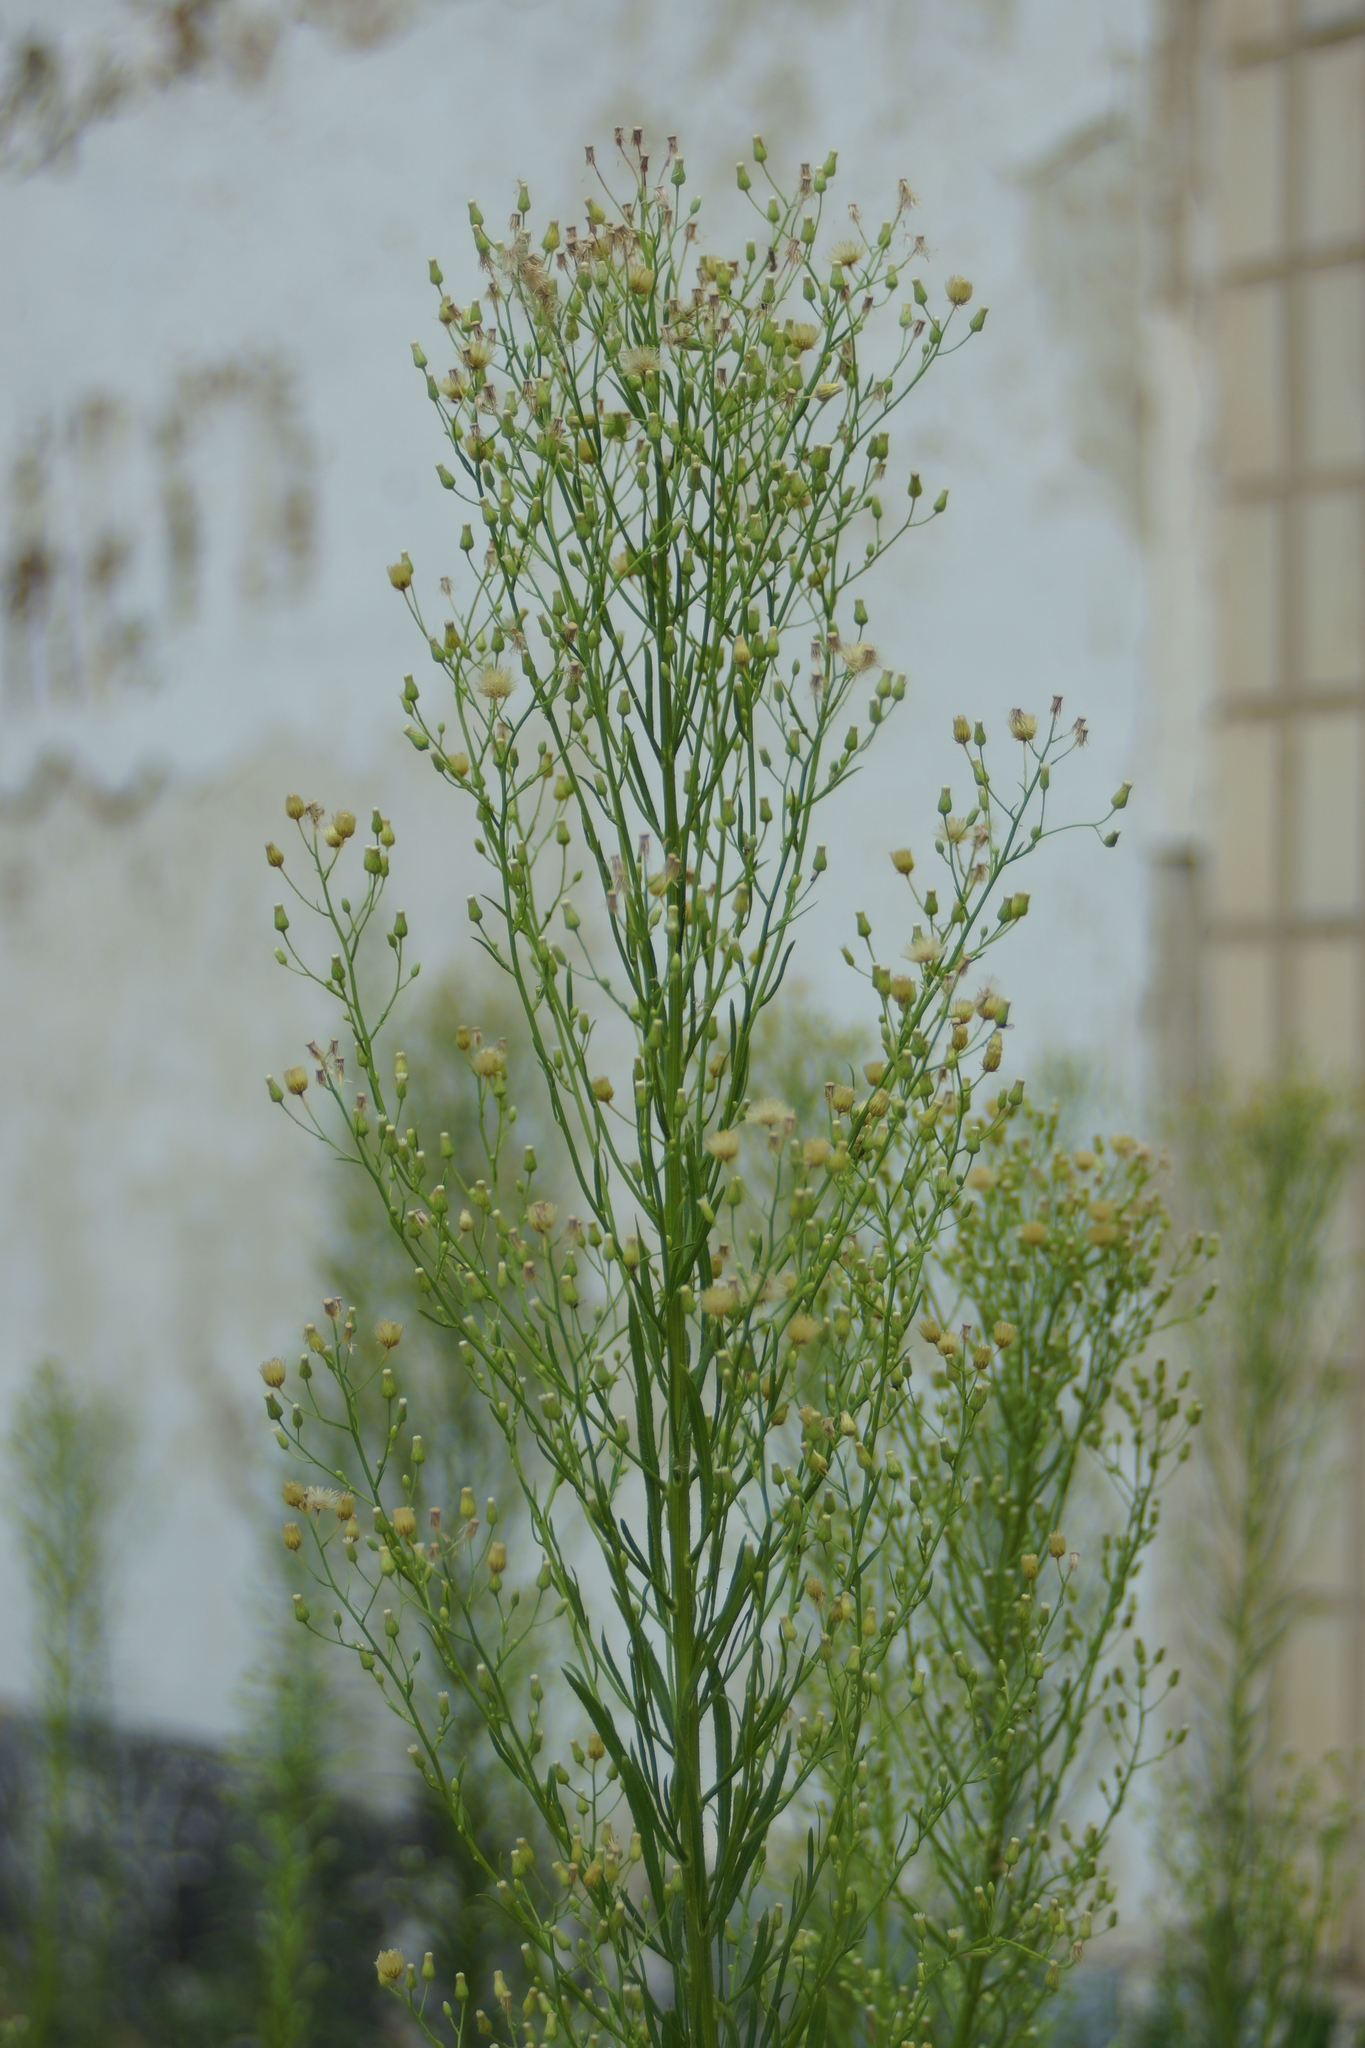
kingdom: Plantae
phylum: Tracheophyta
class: Magnoliopsida
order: Asterales
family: Asteraceae
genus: Erigeron
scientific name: Erigeron canadensis
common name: Canadian fleabane
